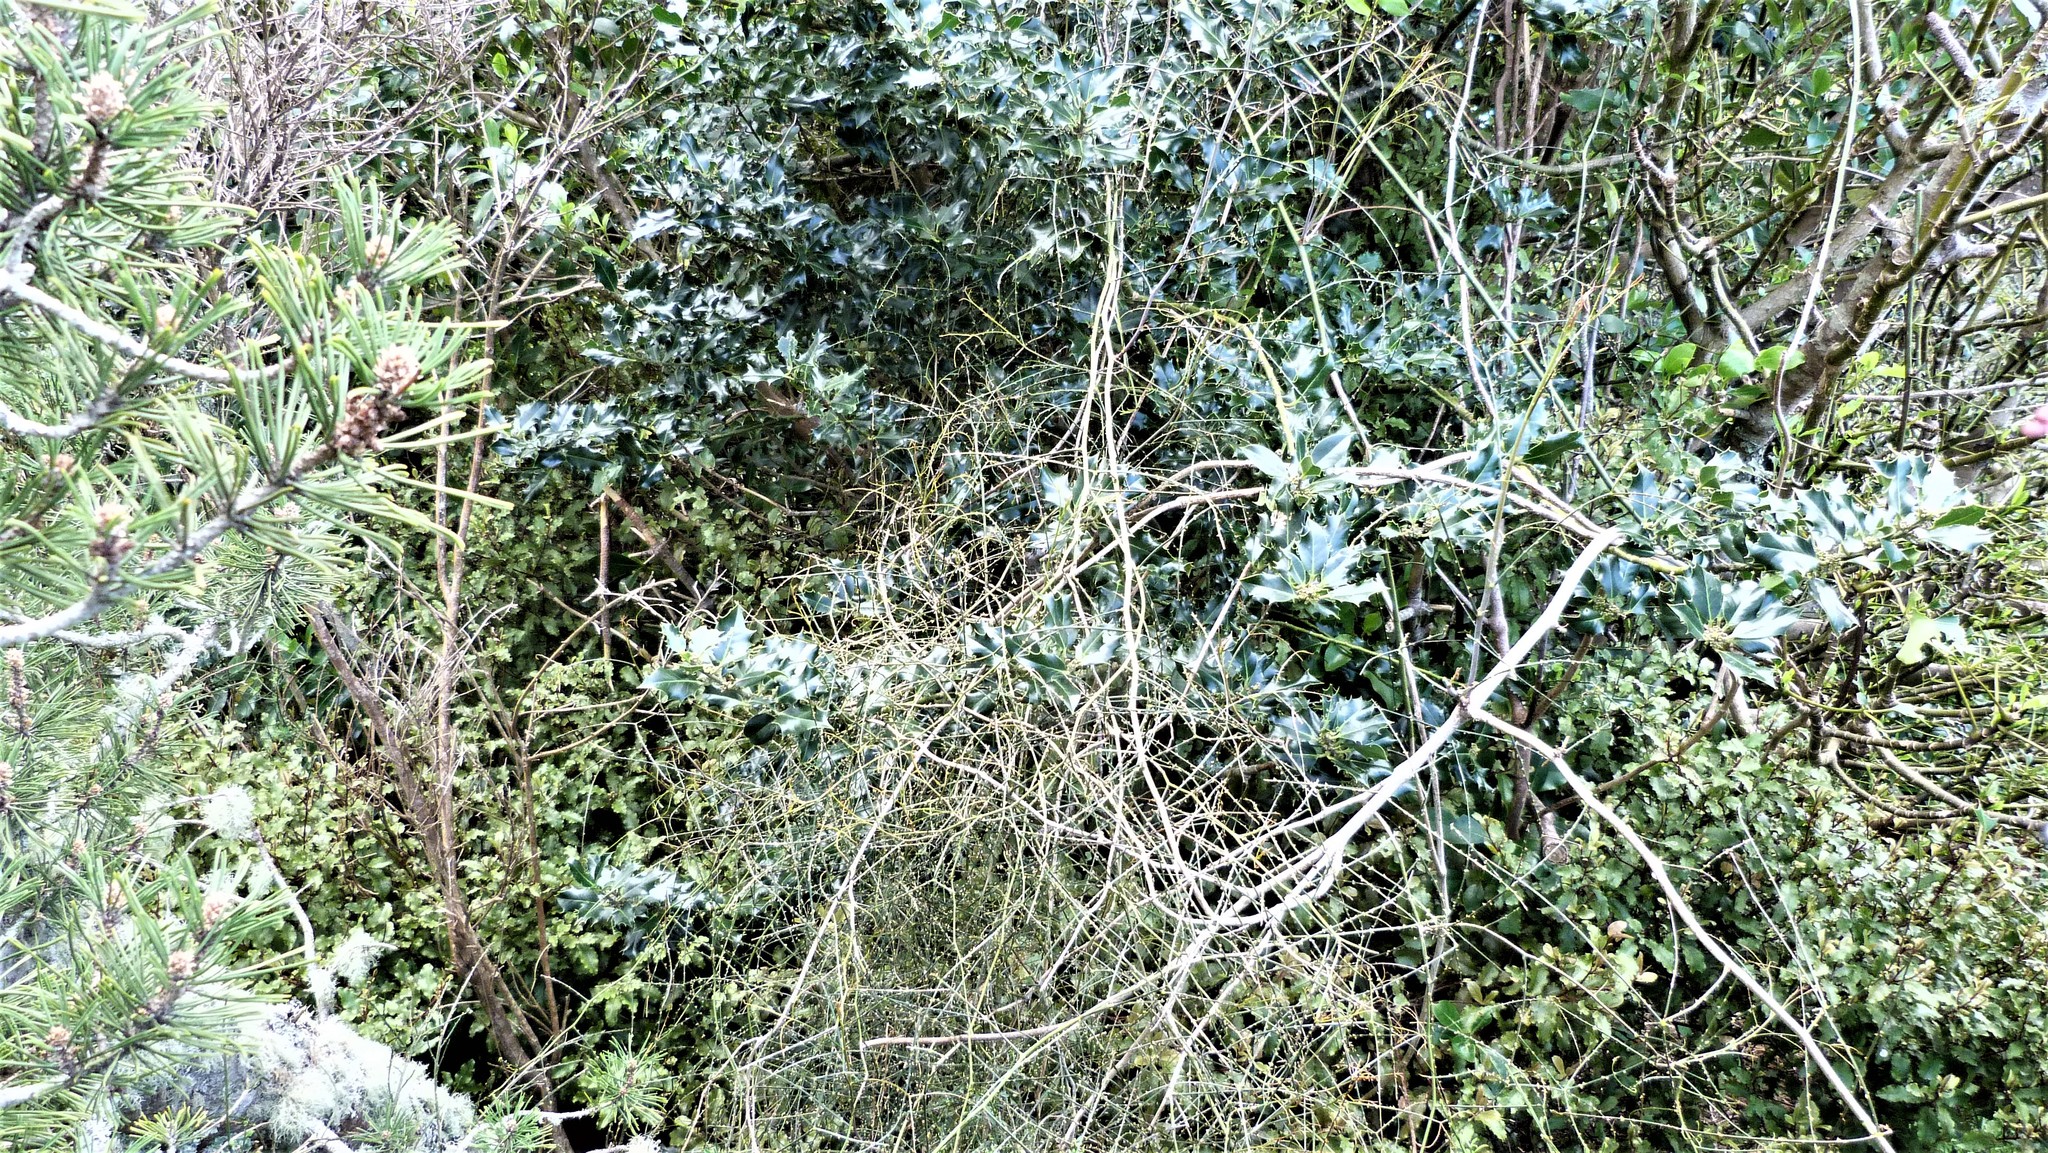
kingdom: Plantae
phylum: Tracheophyta
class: Magnoliopsida
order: Aquifoliales
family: Aquifoliaceae
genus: Ilex
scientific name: Ilex aquifolium
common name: English holly
